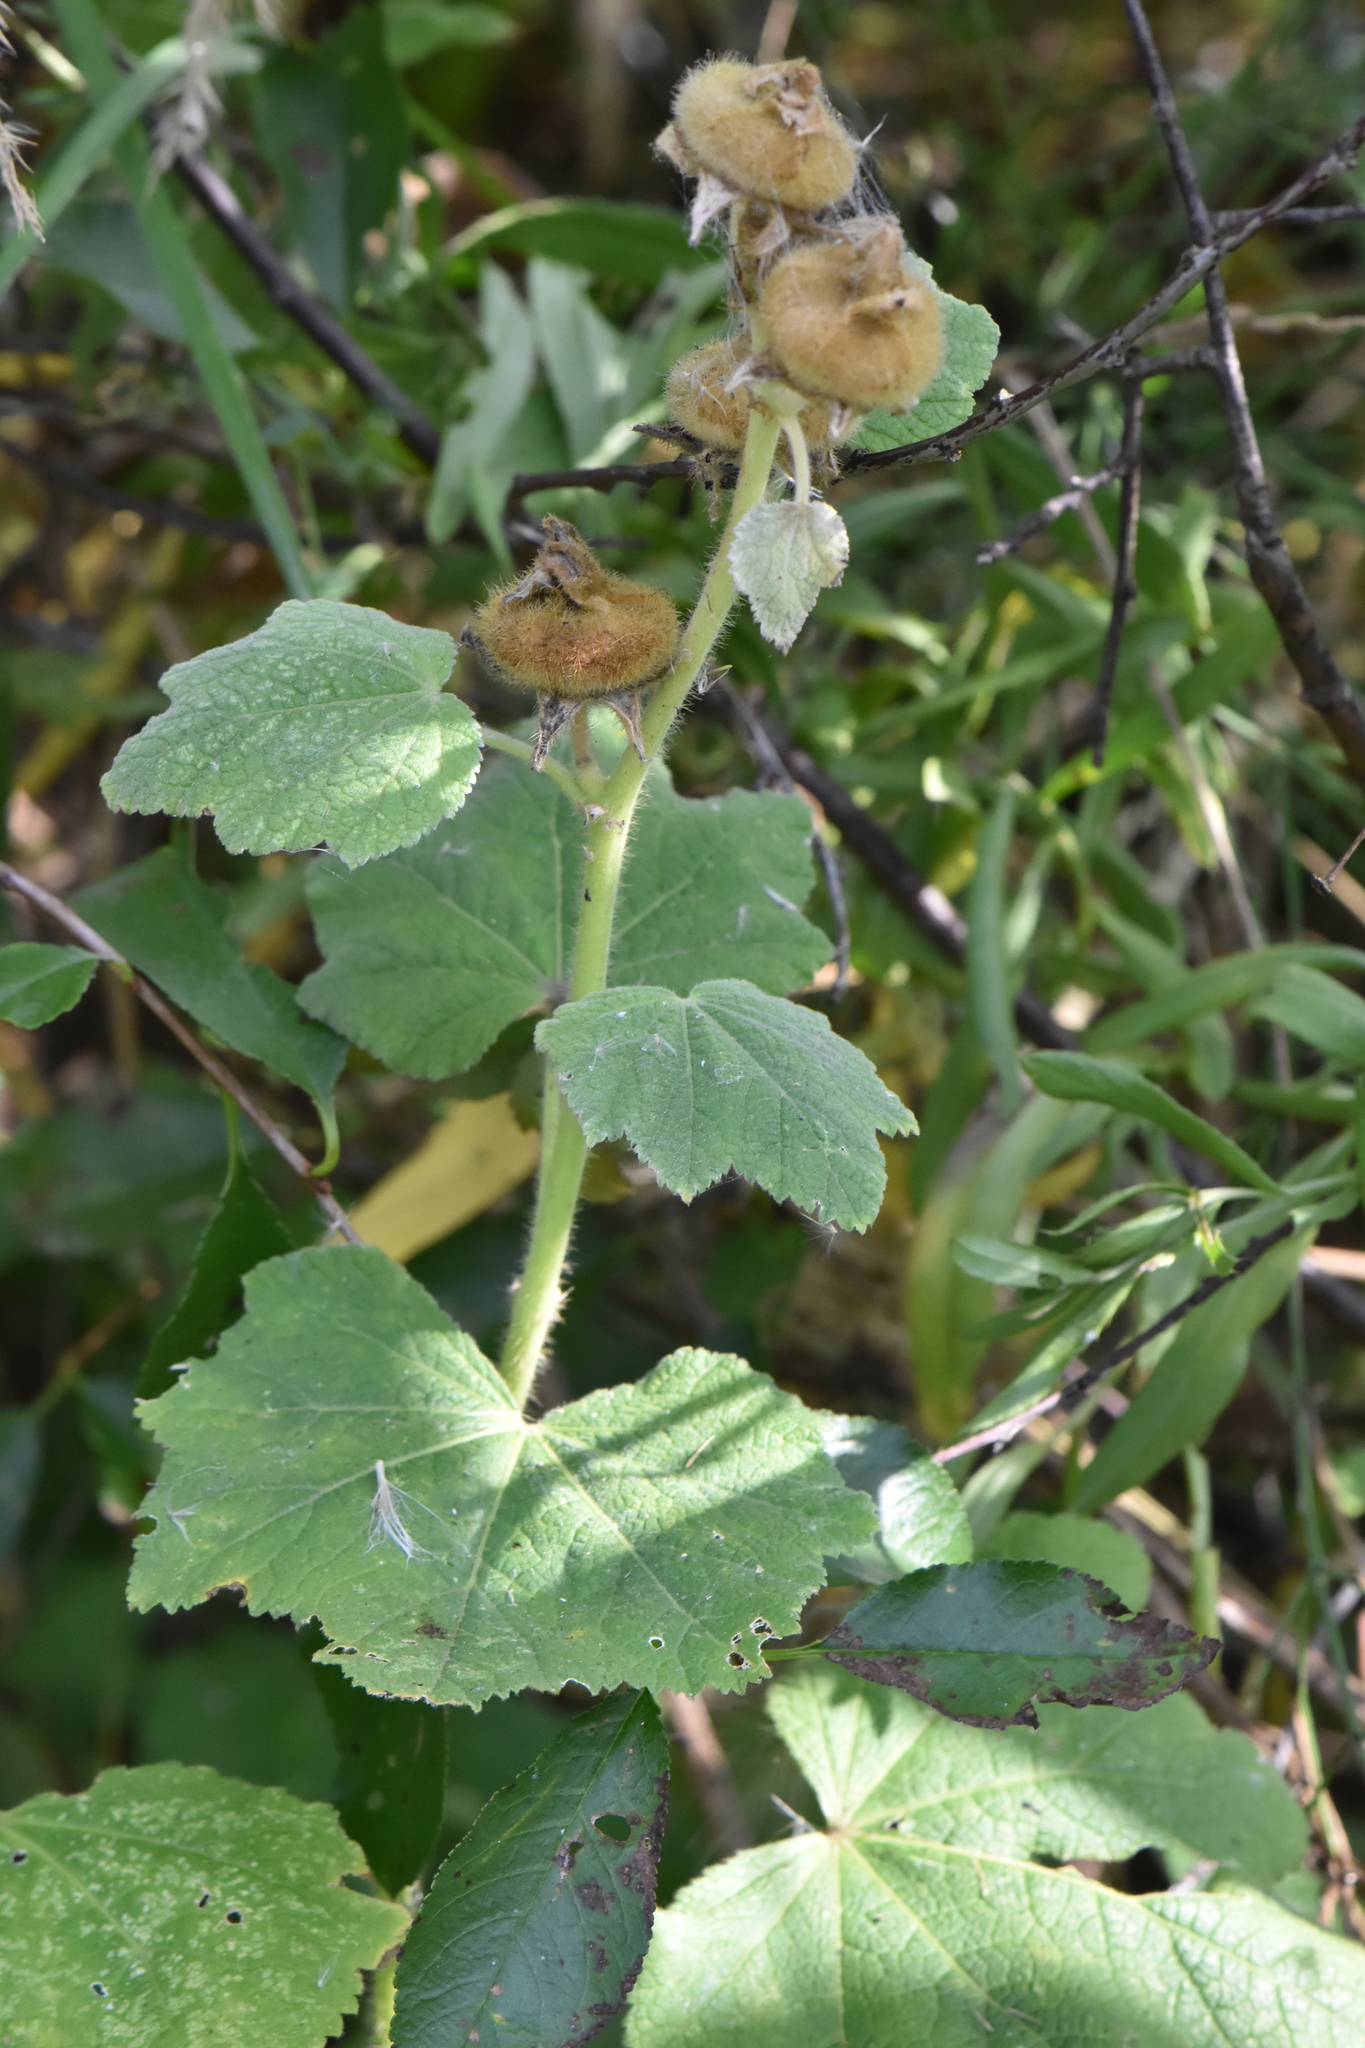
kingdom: Plantae
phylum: Tracheophyta
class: Magnoliopsida
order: Malvales
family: Malvaceae
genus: Alcea
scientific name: Alcea rosea
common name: Hollyhock
